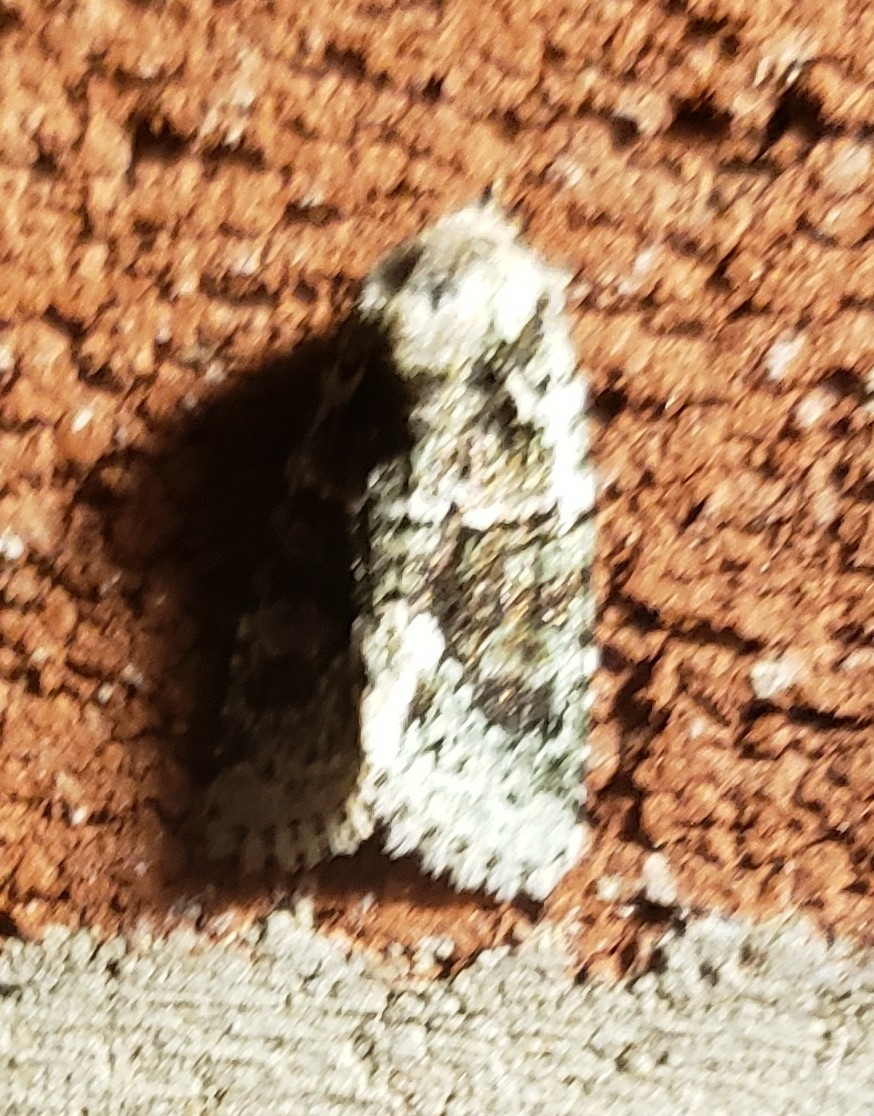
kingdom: Animalia
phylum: Arthropoda
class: Insecta
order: Lepidoptera
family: Noctuidae
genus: Lacinipolia
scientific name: Lacinipolia explicata
